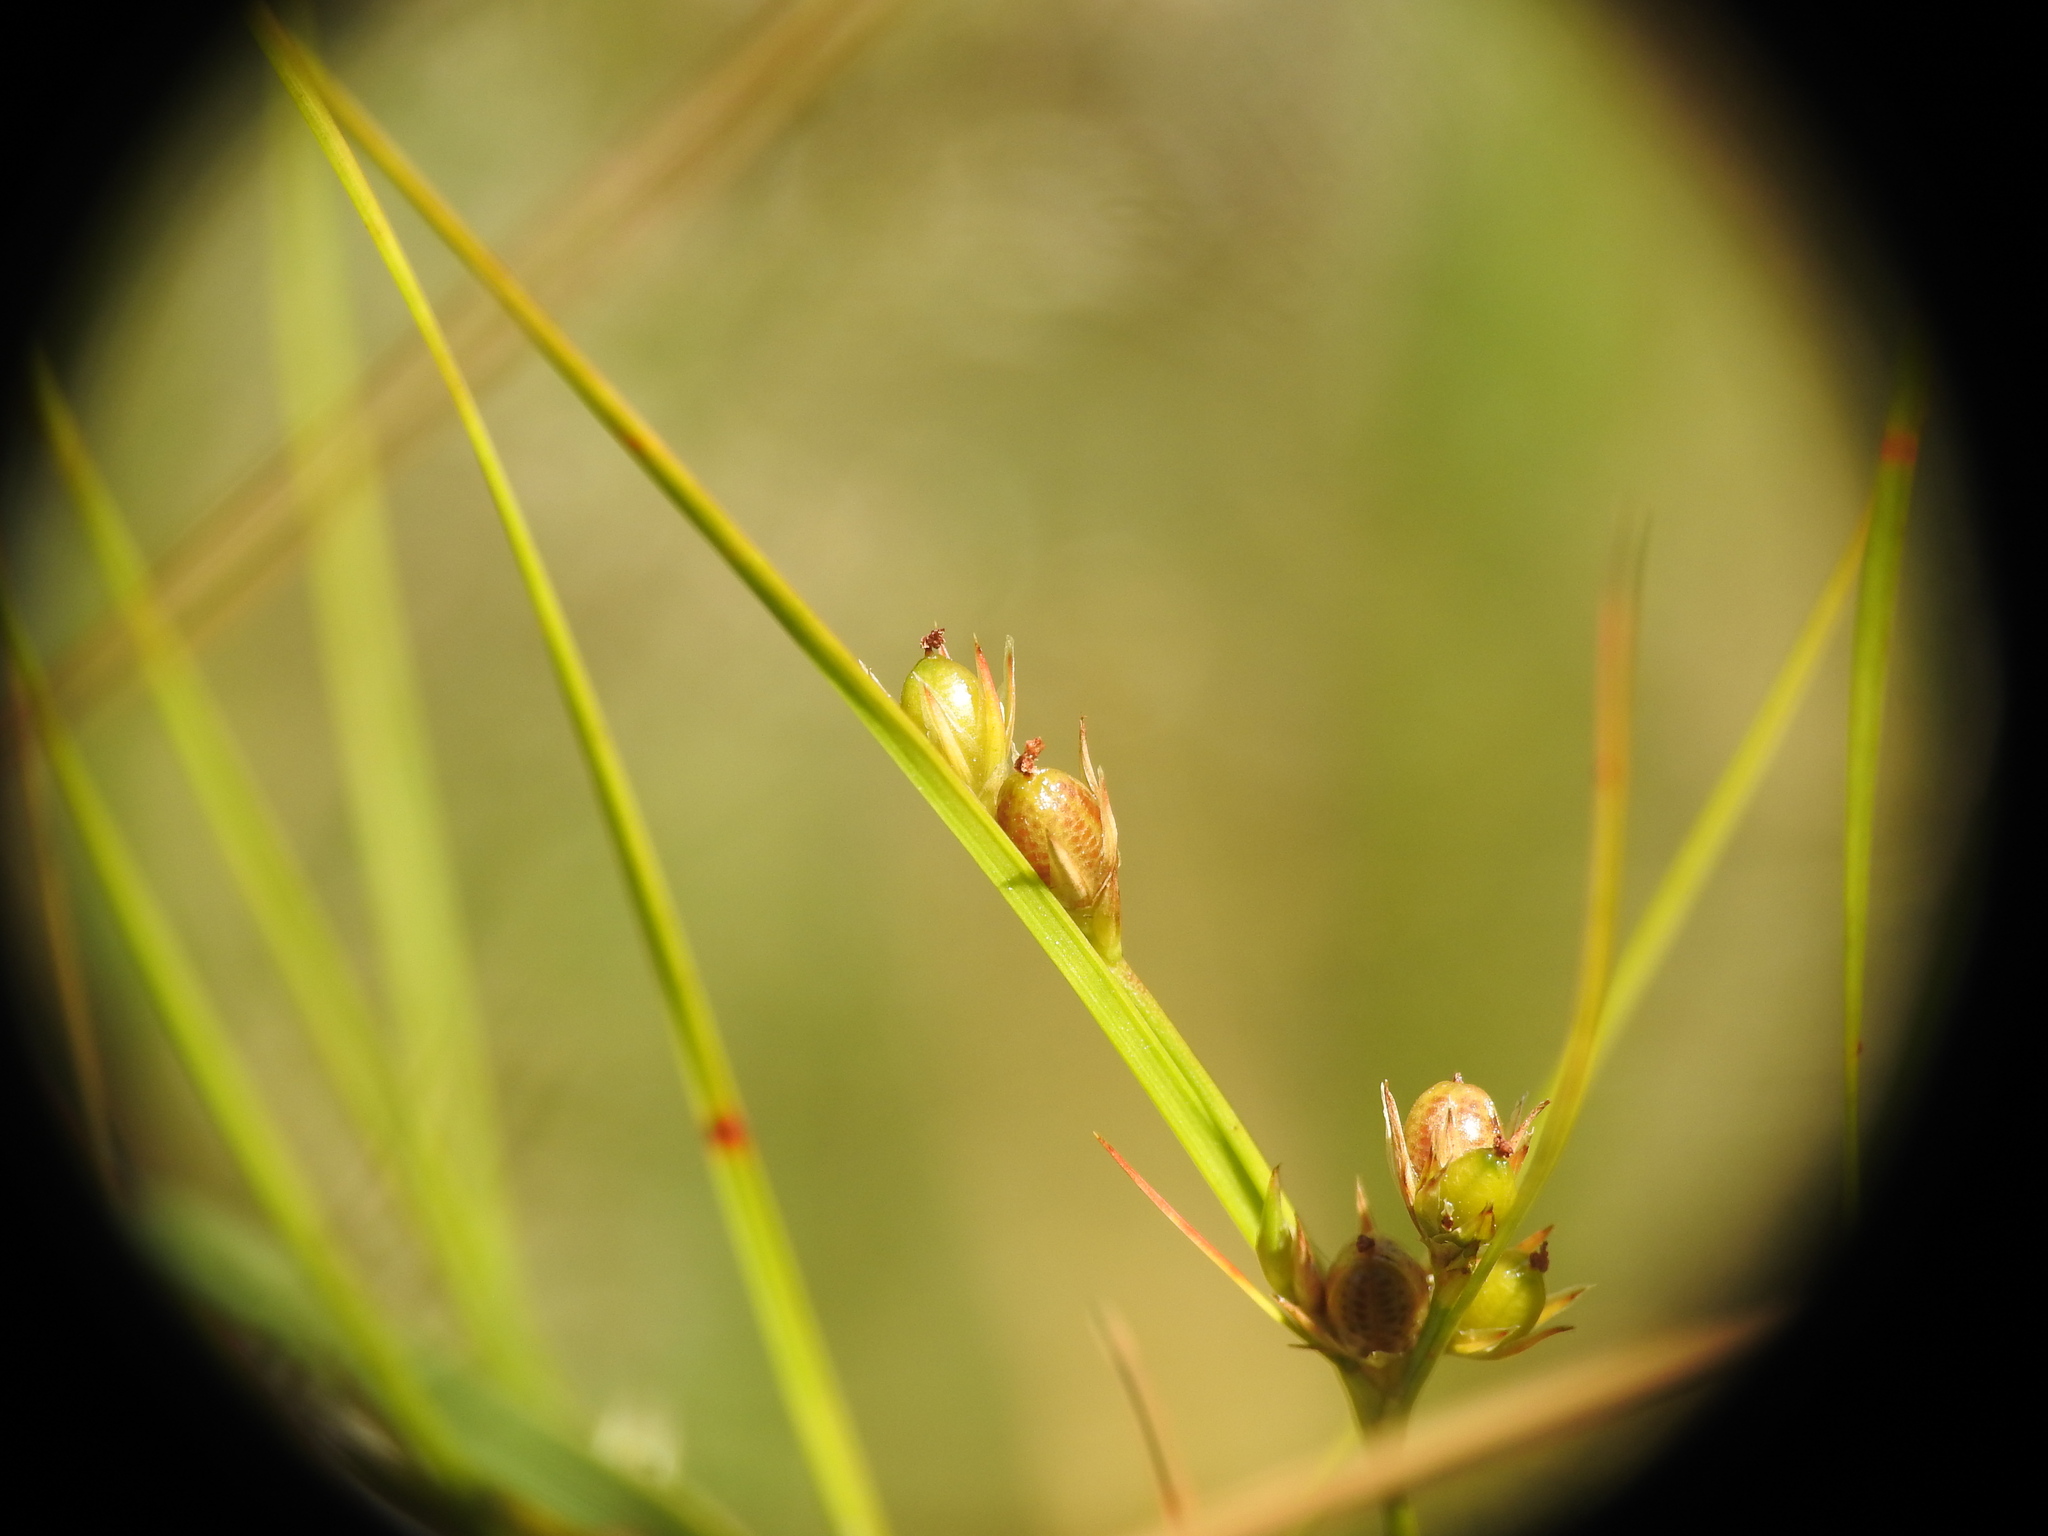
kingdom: Plantae
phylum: Tracheophyta
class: Liliopsida
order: Poales
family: Juncaceae
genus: Juncus
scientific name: Juncus tenuis
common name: Slender rush
